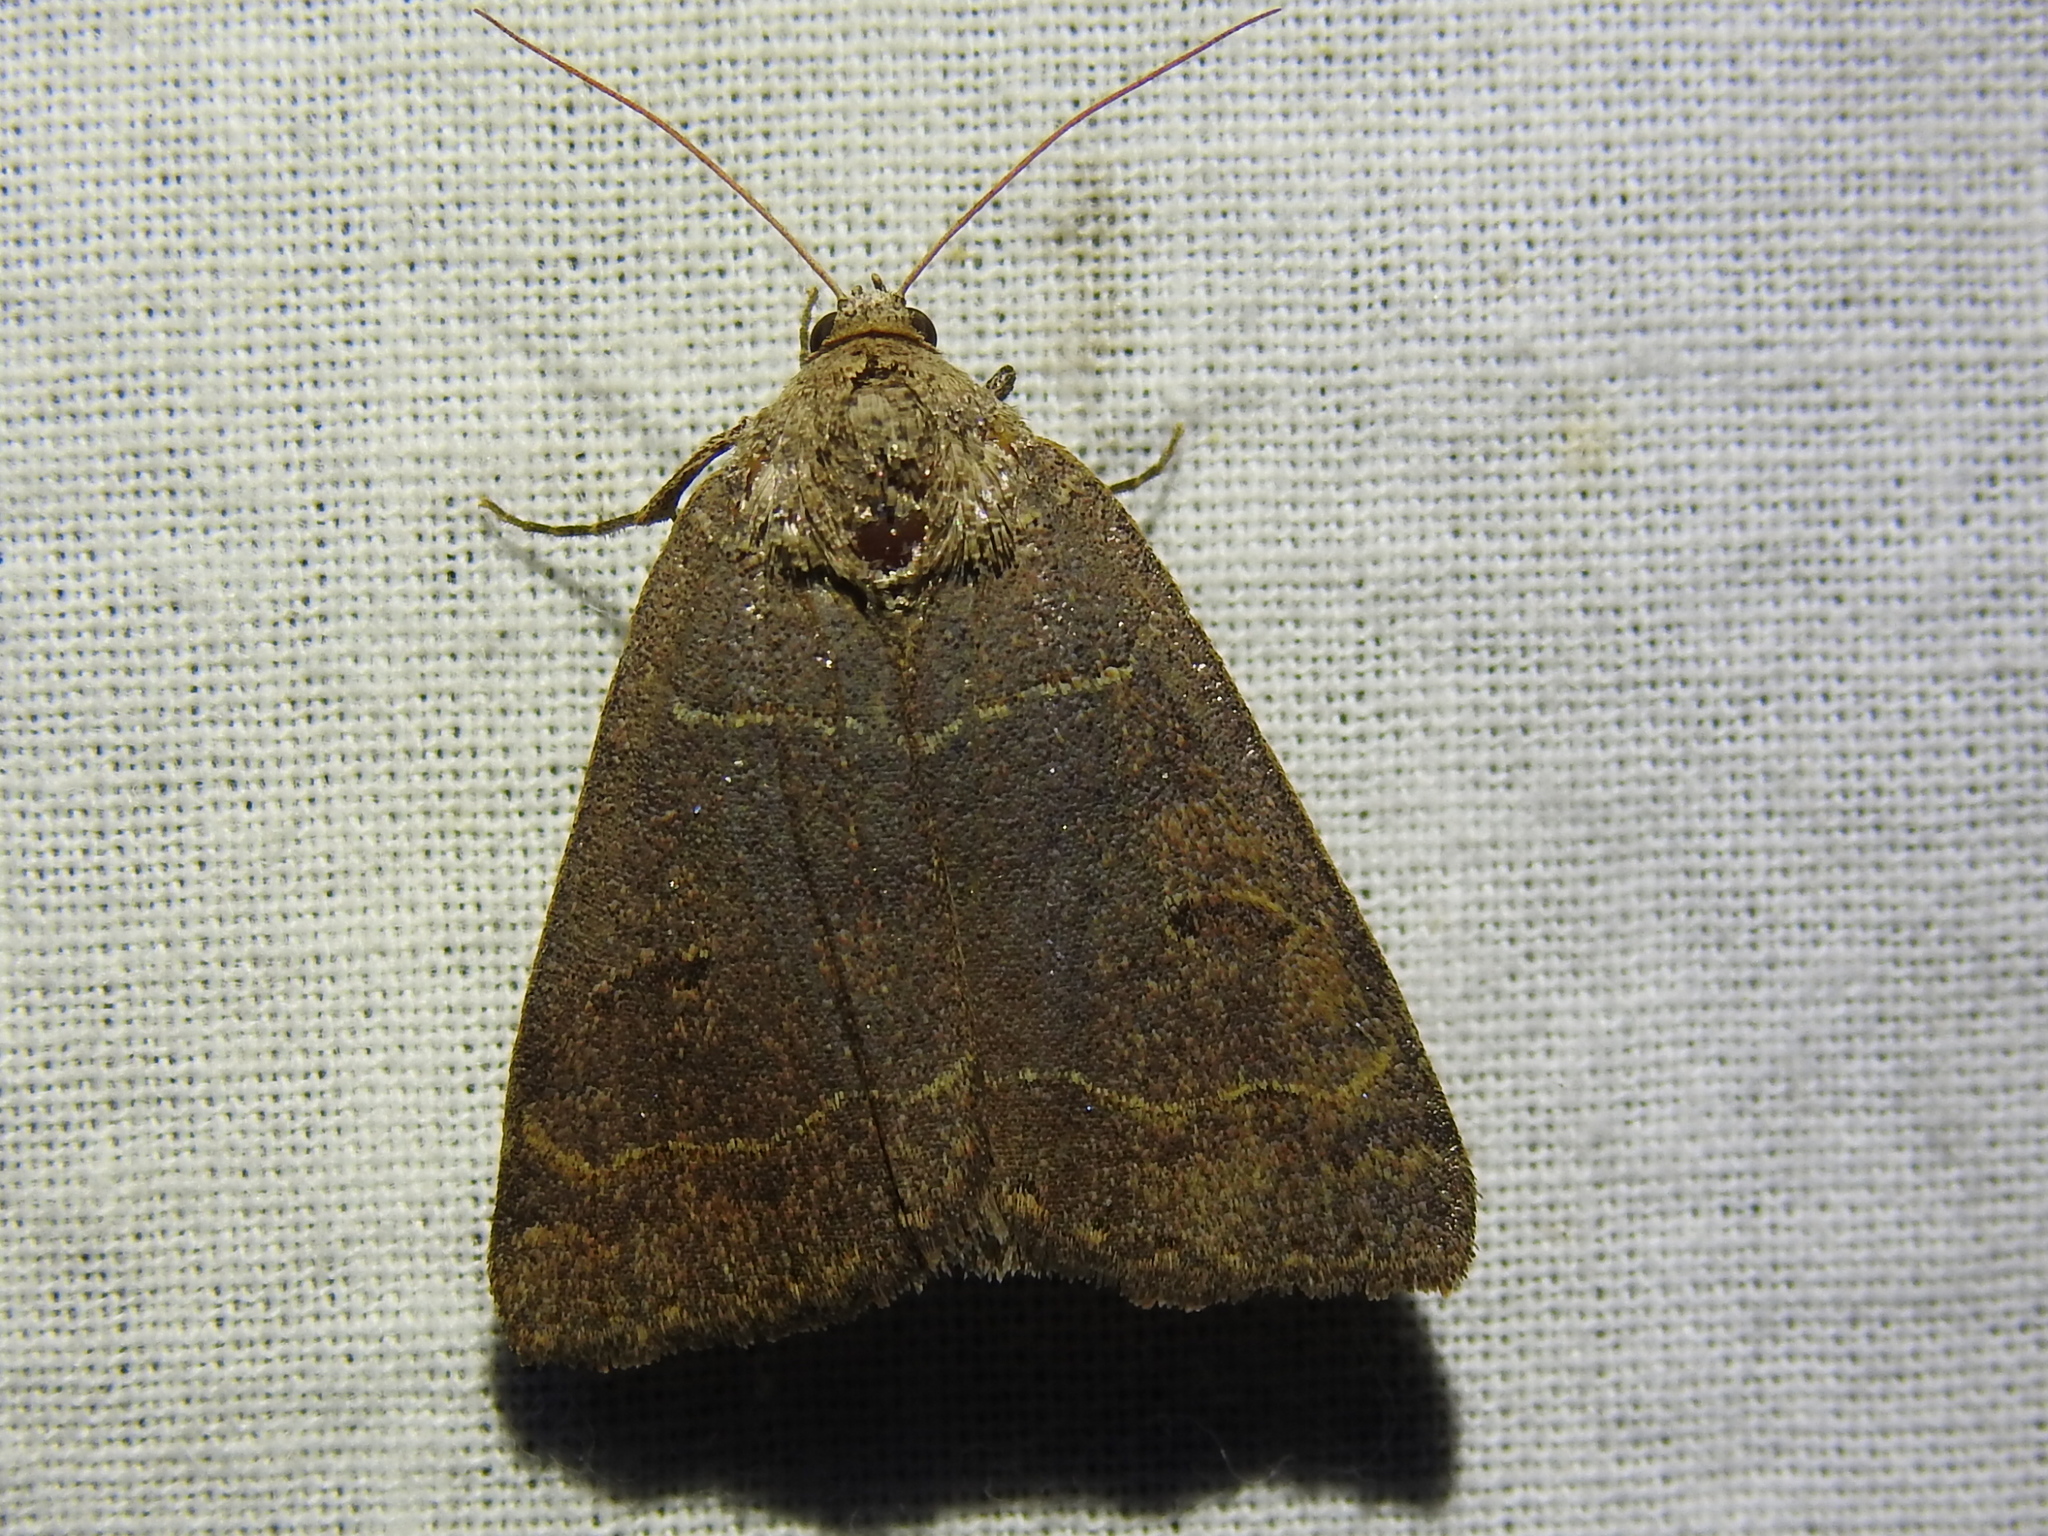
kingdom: Animalia
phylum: Arthropoda
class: Insecta
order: Lepidoptera
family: Erebidae
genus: Phoberia
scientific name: Phoberia atomaris
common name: Common oak moth
